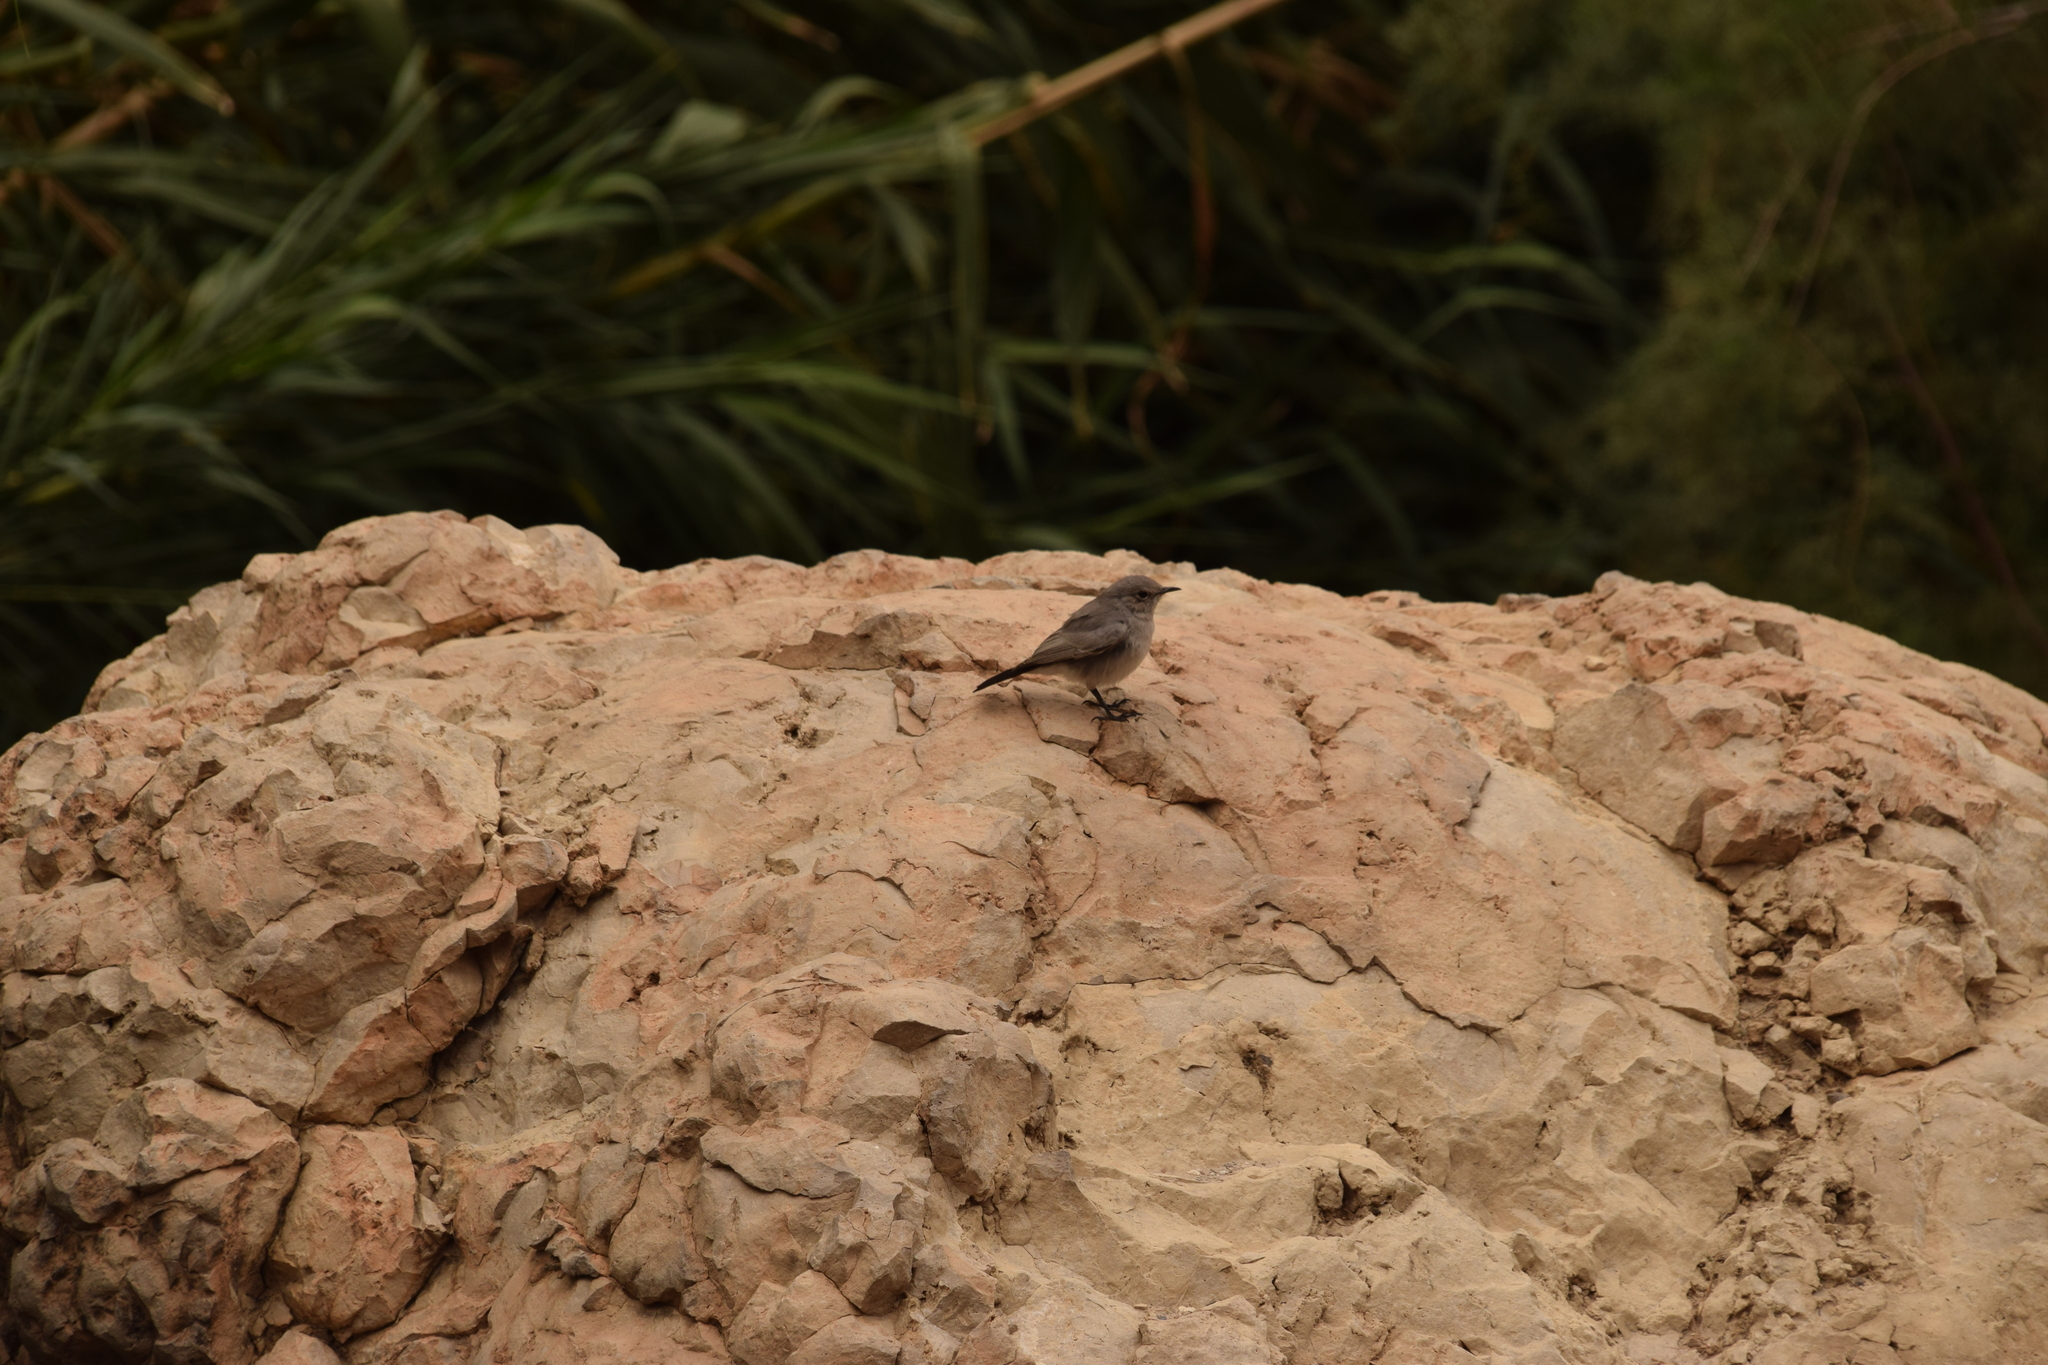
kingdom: Animalia
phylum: Chordata
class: Aves
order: Passeriformes
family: Muscicapidae
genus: Oenanthe
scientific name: Oenanthe melanura
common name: Blackstart
